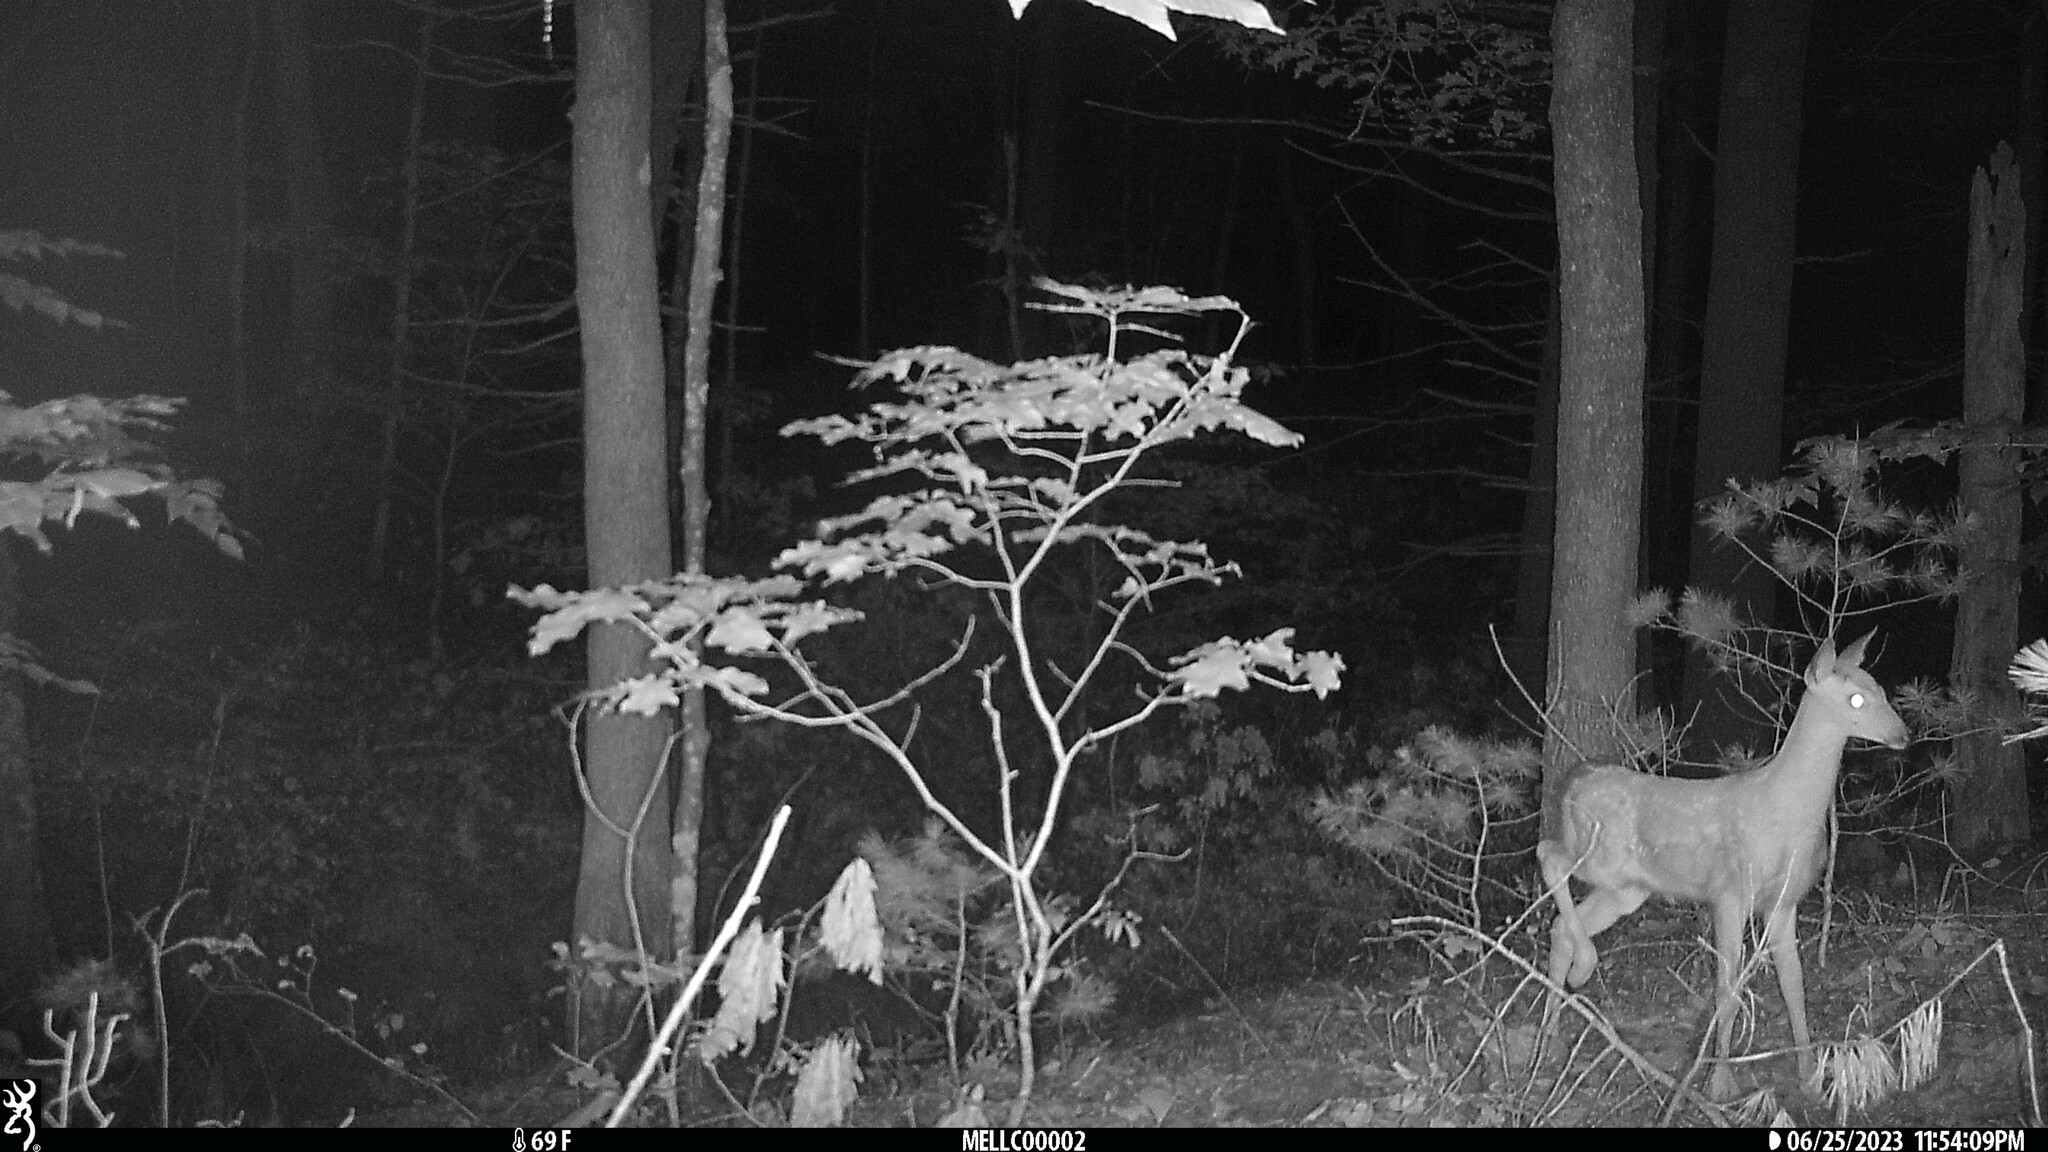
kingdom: Animalia
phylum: Chordata
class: Mammalia
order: Artiodactyla
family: Cervidae
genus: Odocoileus
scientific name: Odocoileus virginianus
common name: White-tailed deer
